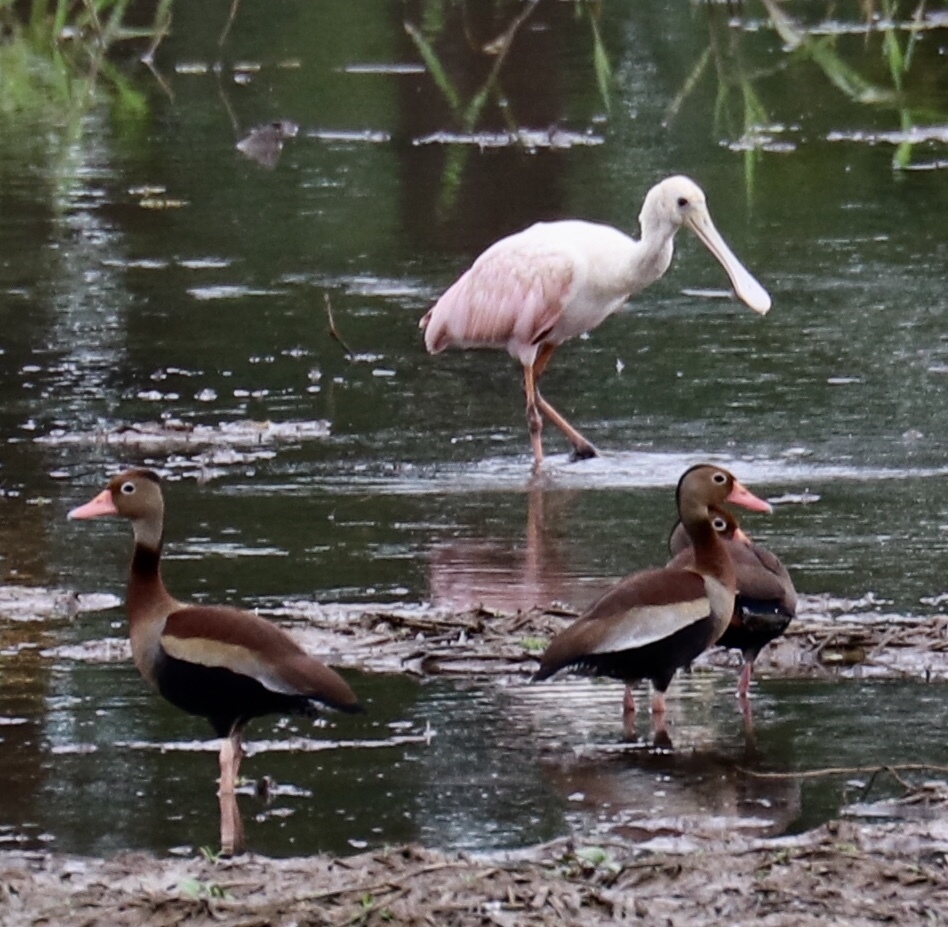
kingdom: Animalia
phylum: Chordata
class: Aves
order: Anseriformes
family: Anatidae
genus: Dendrocygna
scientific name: Dendrocygna autumnalis
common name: Black-bellied whistling duck
